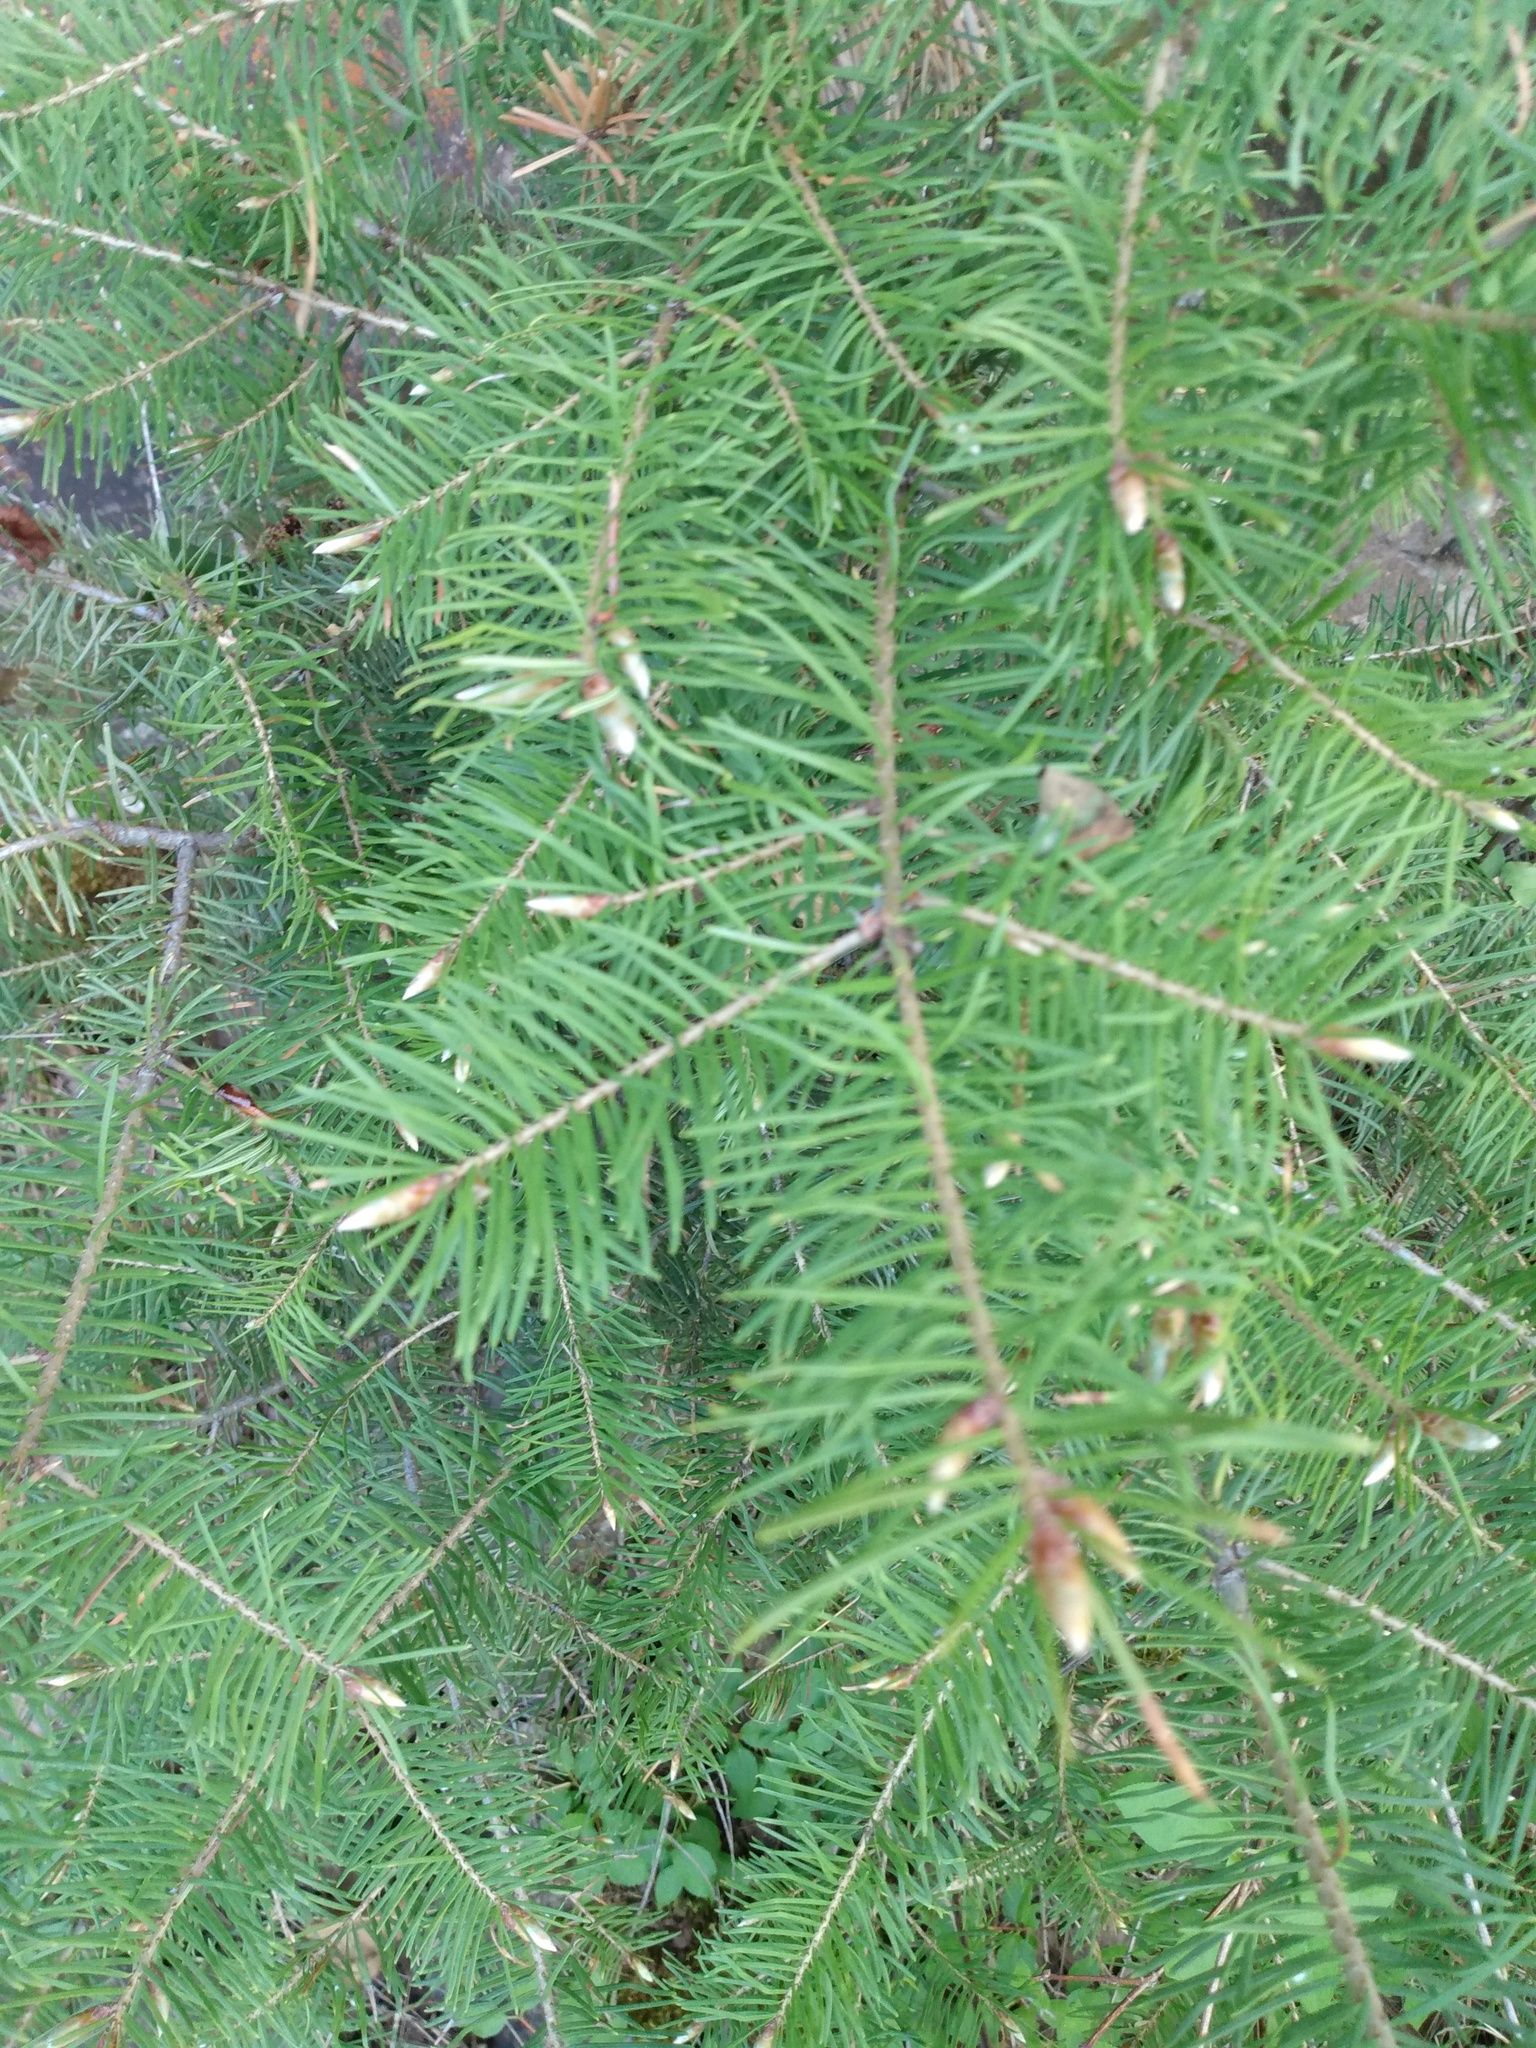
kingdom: Plantae
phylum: Tracheophyta
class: Pinopsida
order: Pinales
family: Pinaceae
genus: Pseudotsuga
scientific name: Pseudotsuga menziesii
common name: Douglas fir
